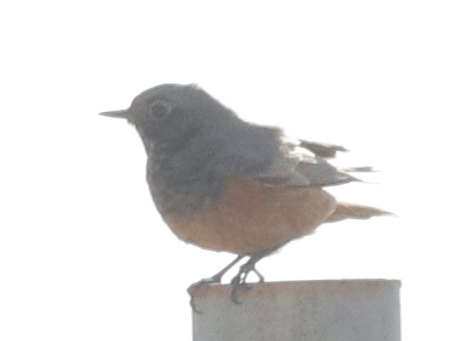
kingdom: Animalia
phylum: Chordata
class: Aves
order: Passeriformes
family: Muscicapidae
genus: Phoenicurus
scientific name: Phoenicurus ochruros
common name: Black redstart
